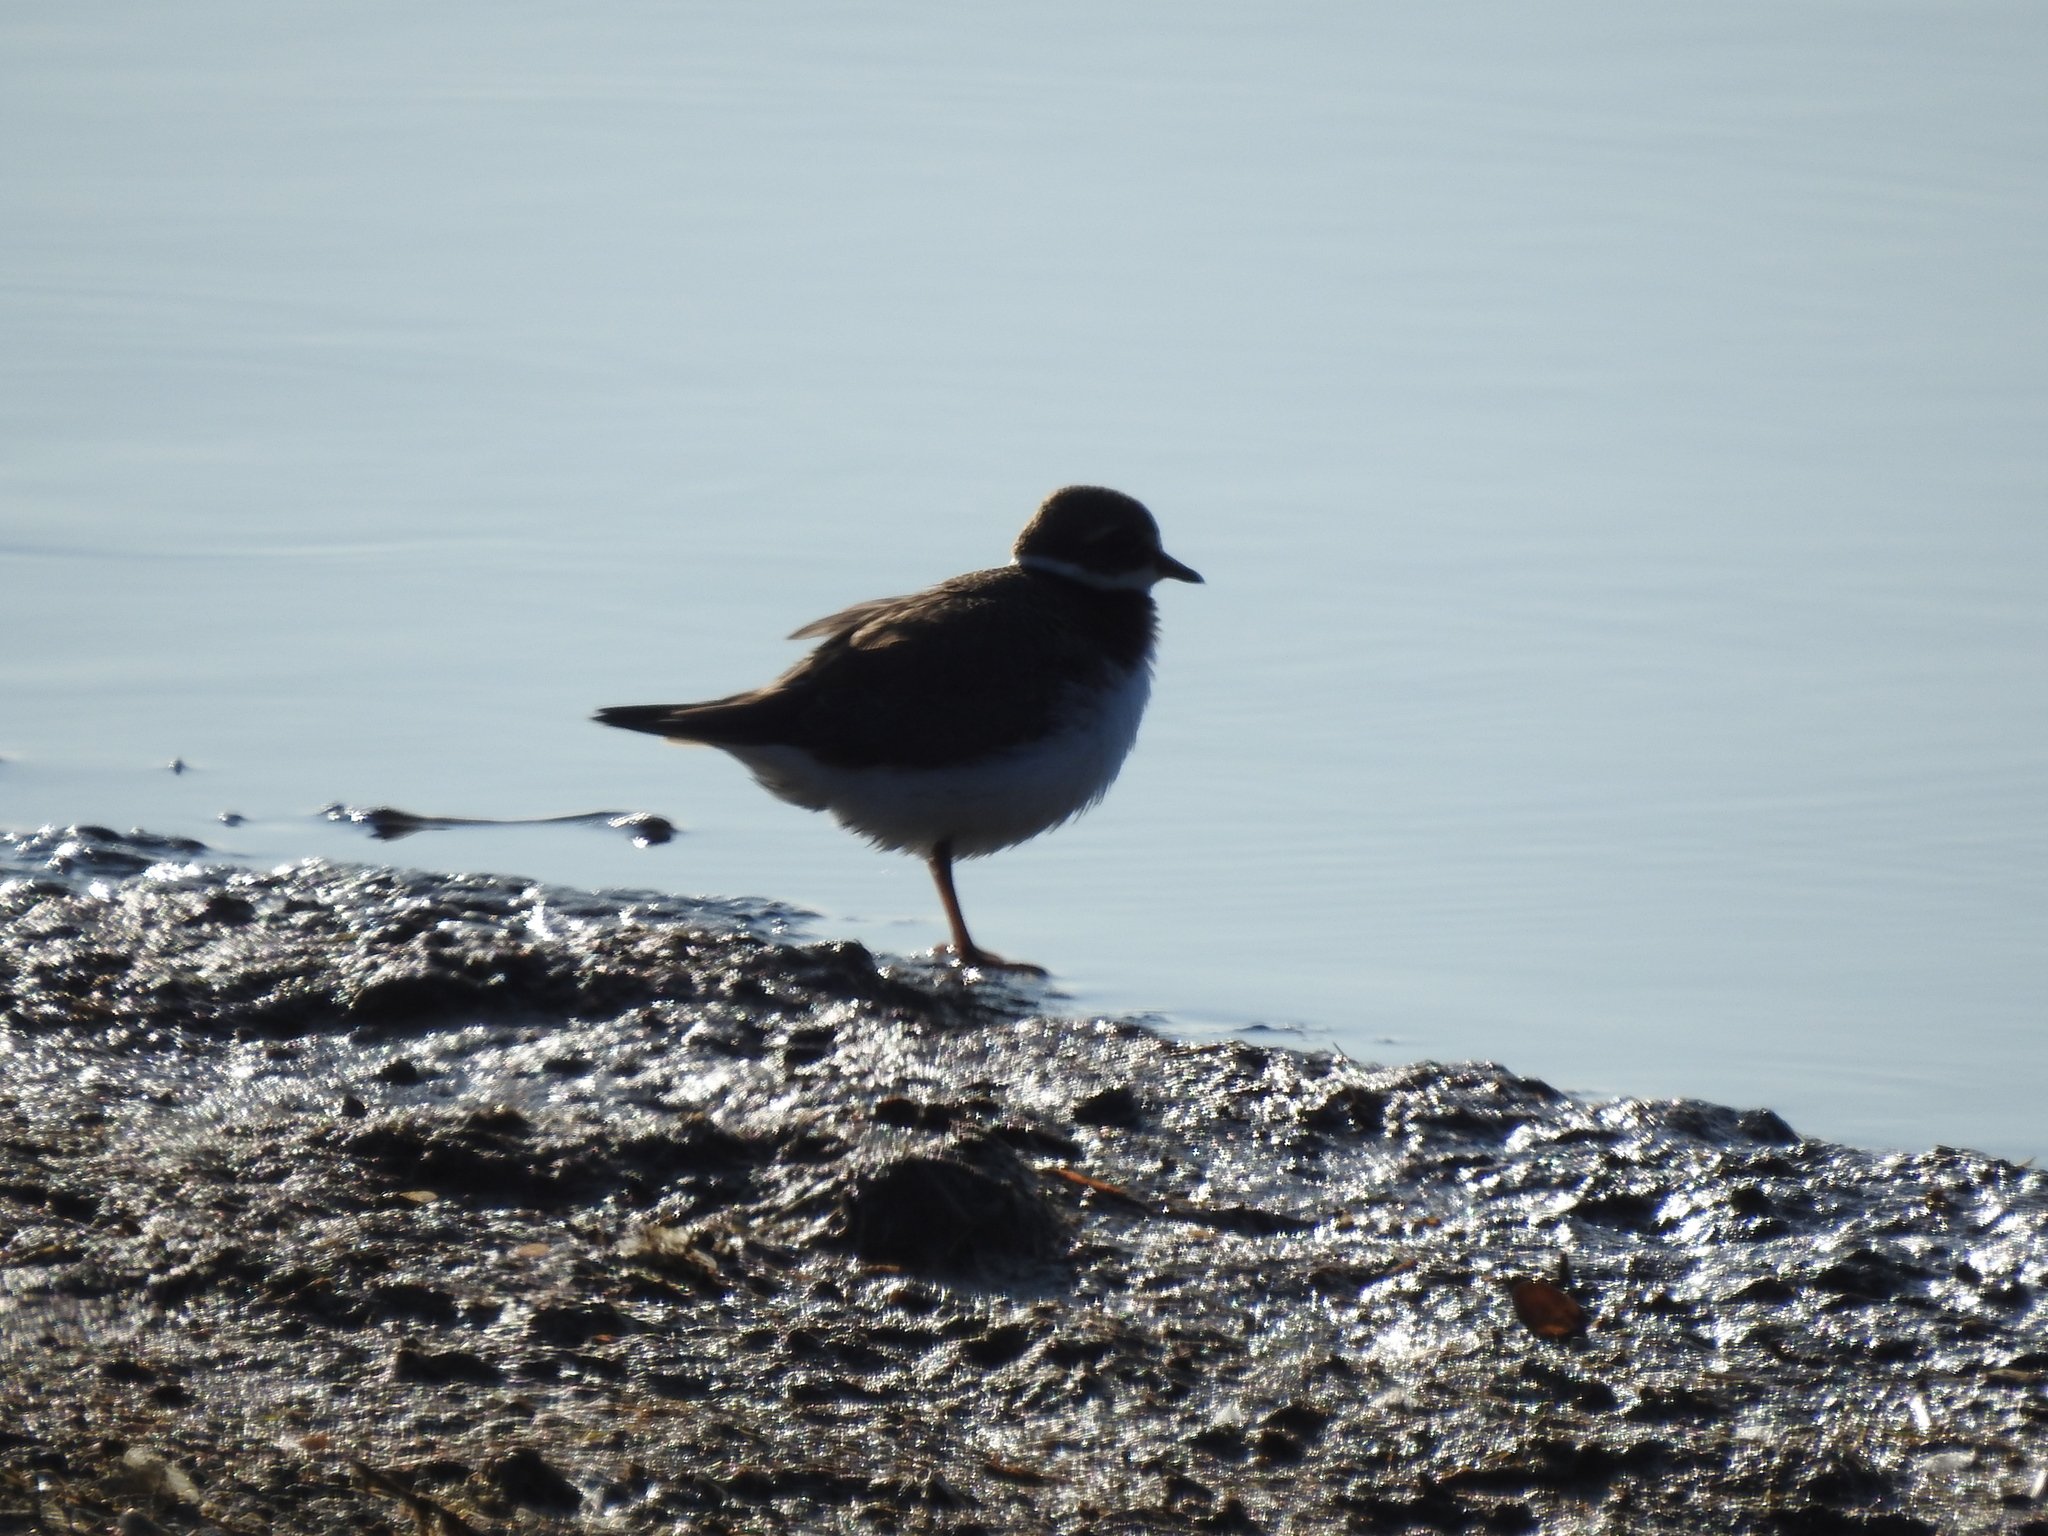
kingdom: Animalia
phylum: Chordata
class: Aves
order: Charadriiformes
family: Charadriidae
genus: Charadrius
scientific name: Charadrius dubius
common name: Little ringed plover
